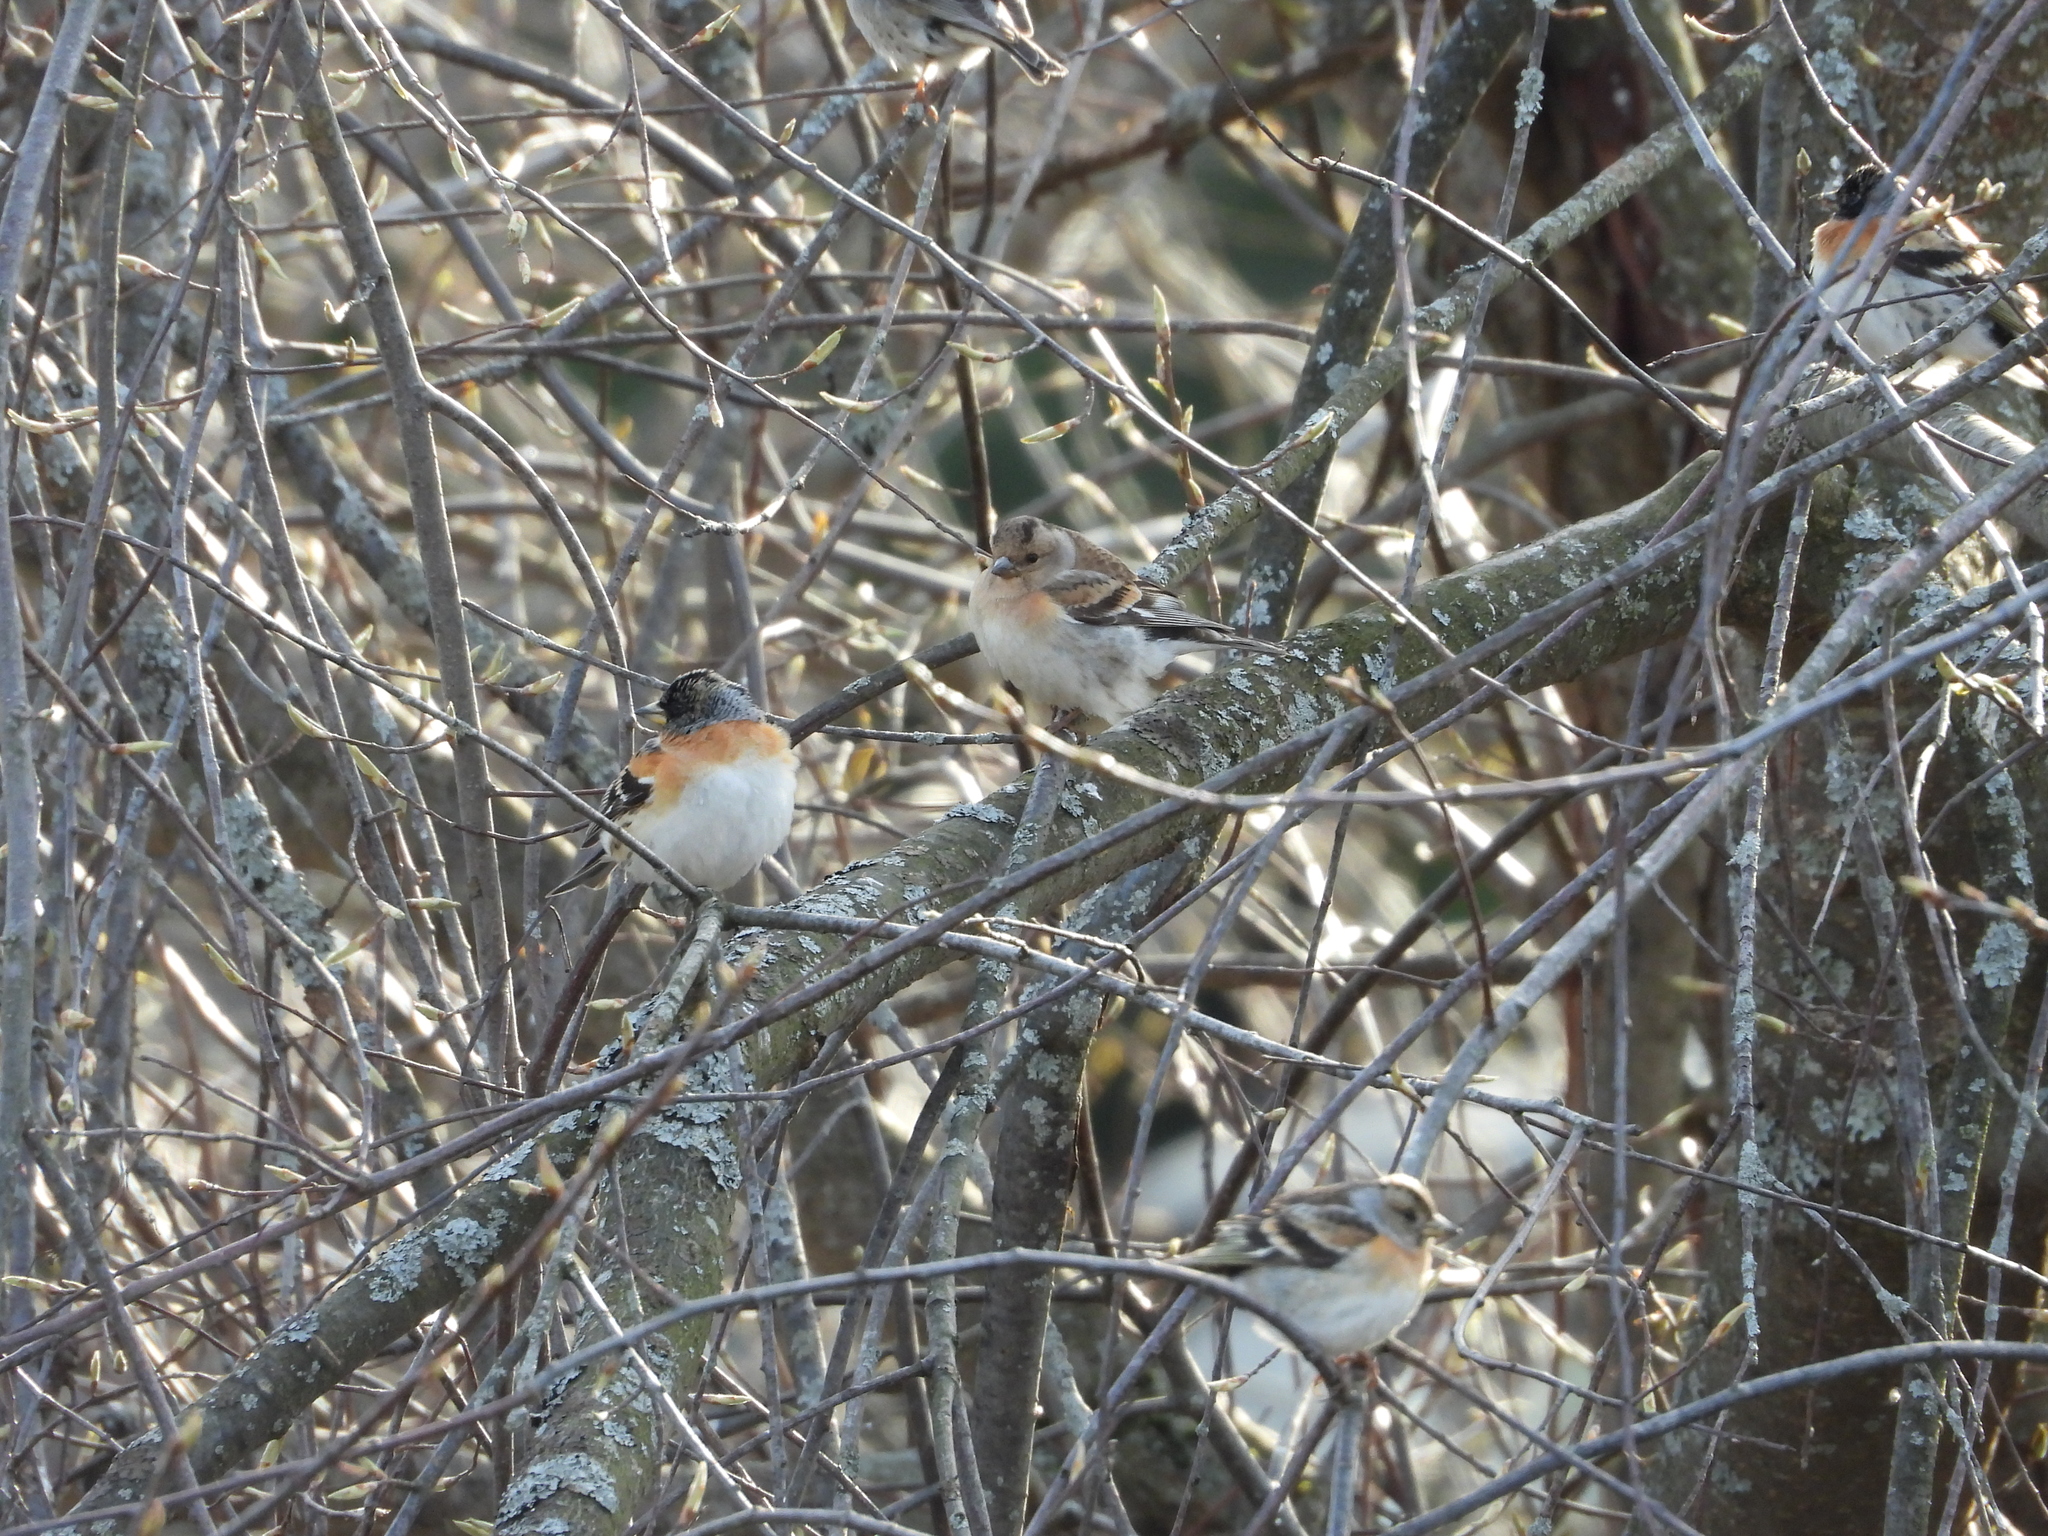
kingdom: Animalia
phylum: Chordata
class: Aves
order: Passeriformes
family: Fringillidae
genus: Fringilla
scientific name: Fringilla montifringilla
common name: Brambling
